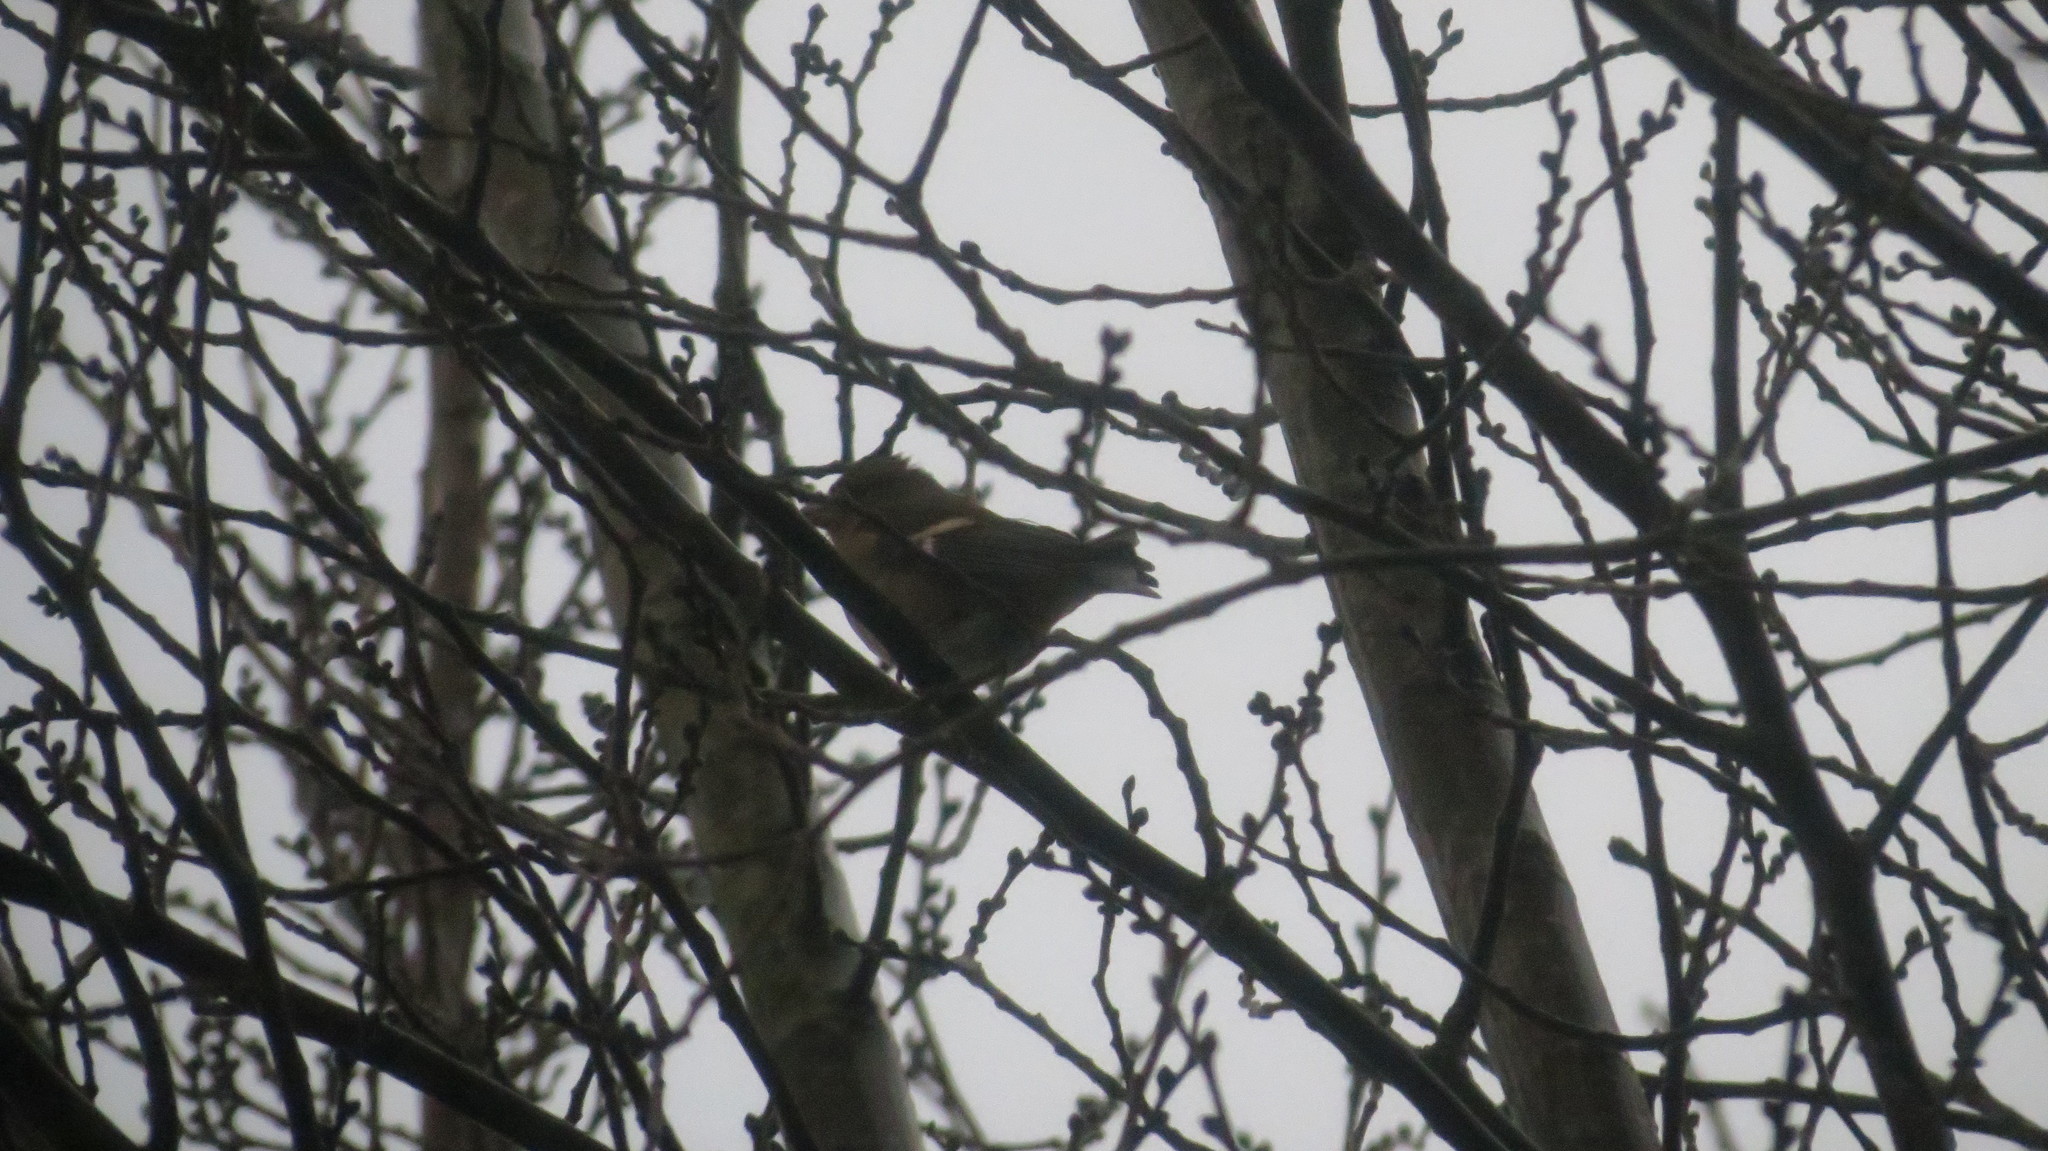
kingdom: Animalia
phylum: Chordata
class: Aves
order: Passeriformes
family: Fringillidae
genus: Fringilla
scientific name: Fringilla coelebs
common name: Common chaffinch
